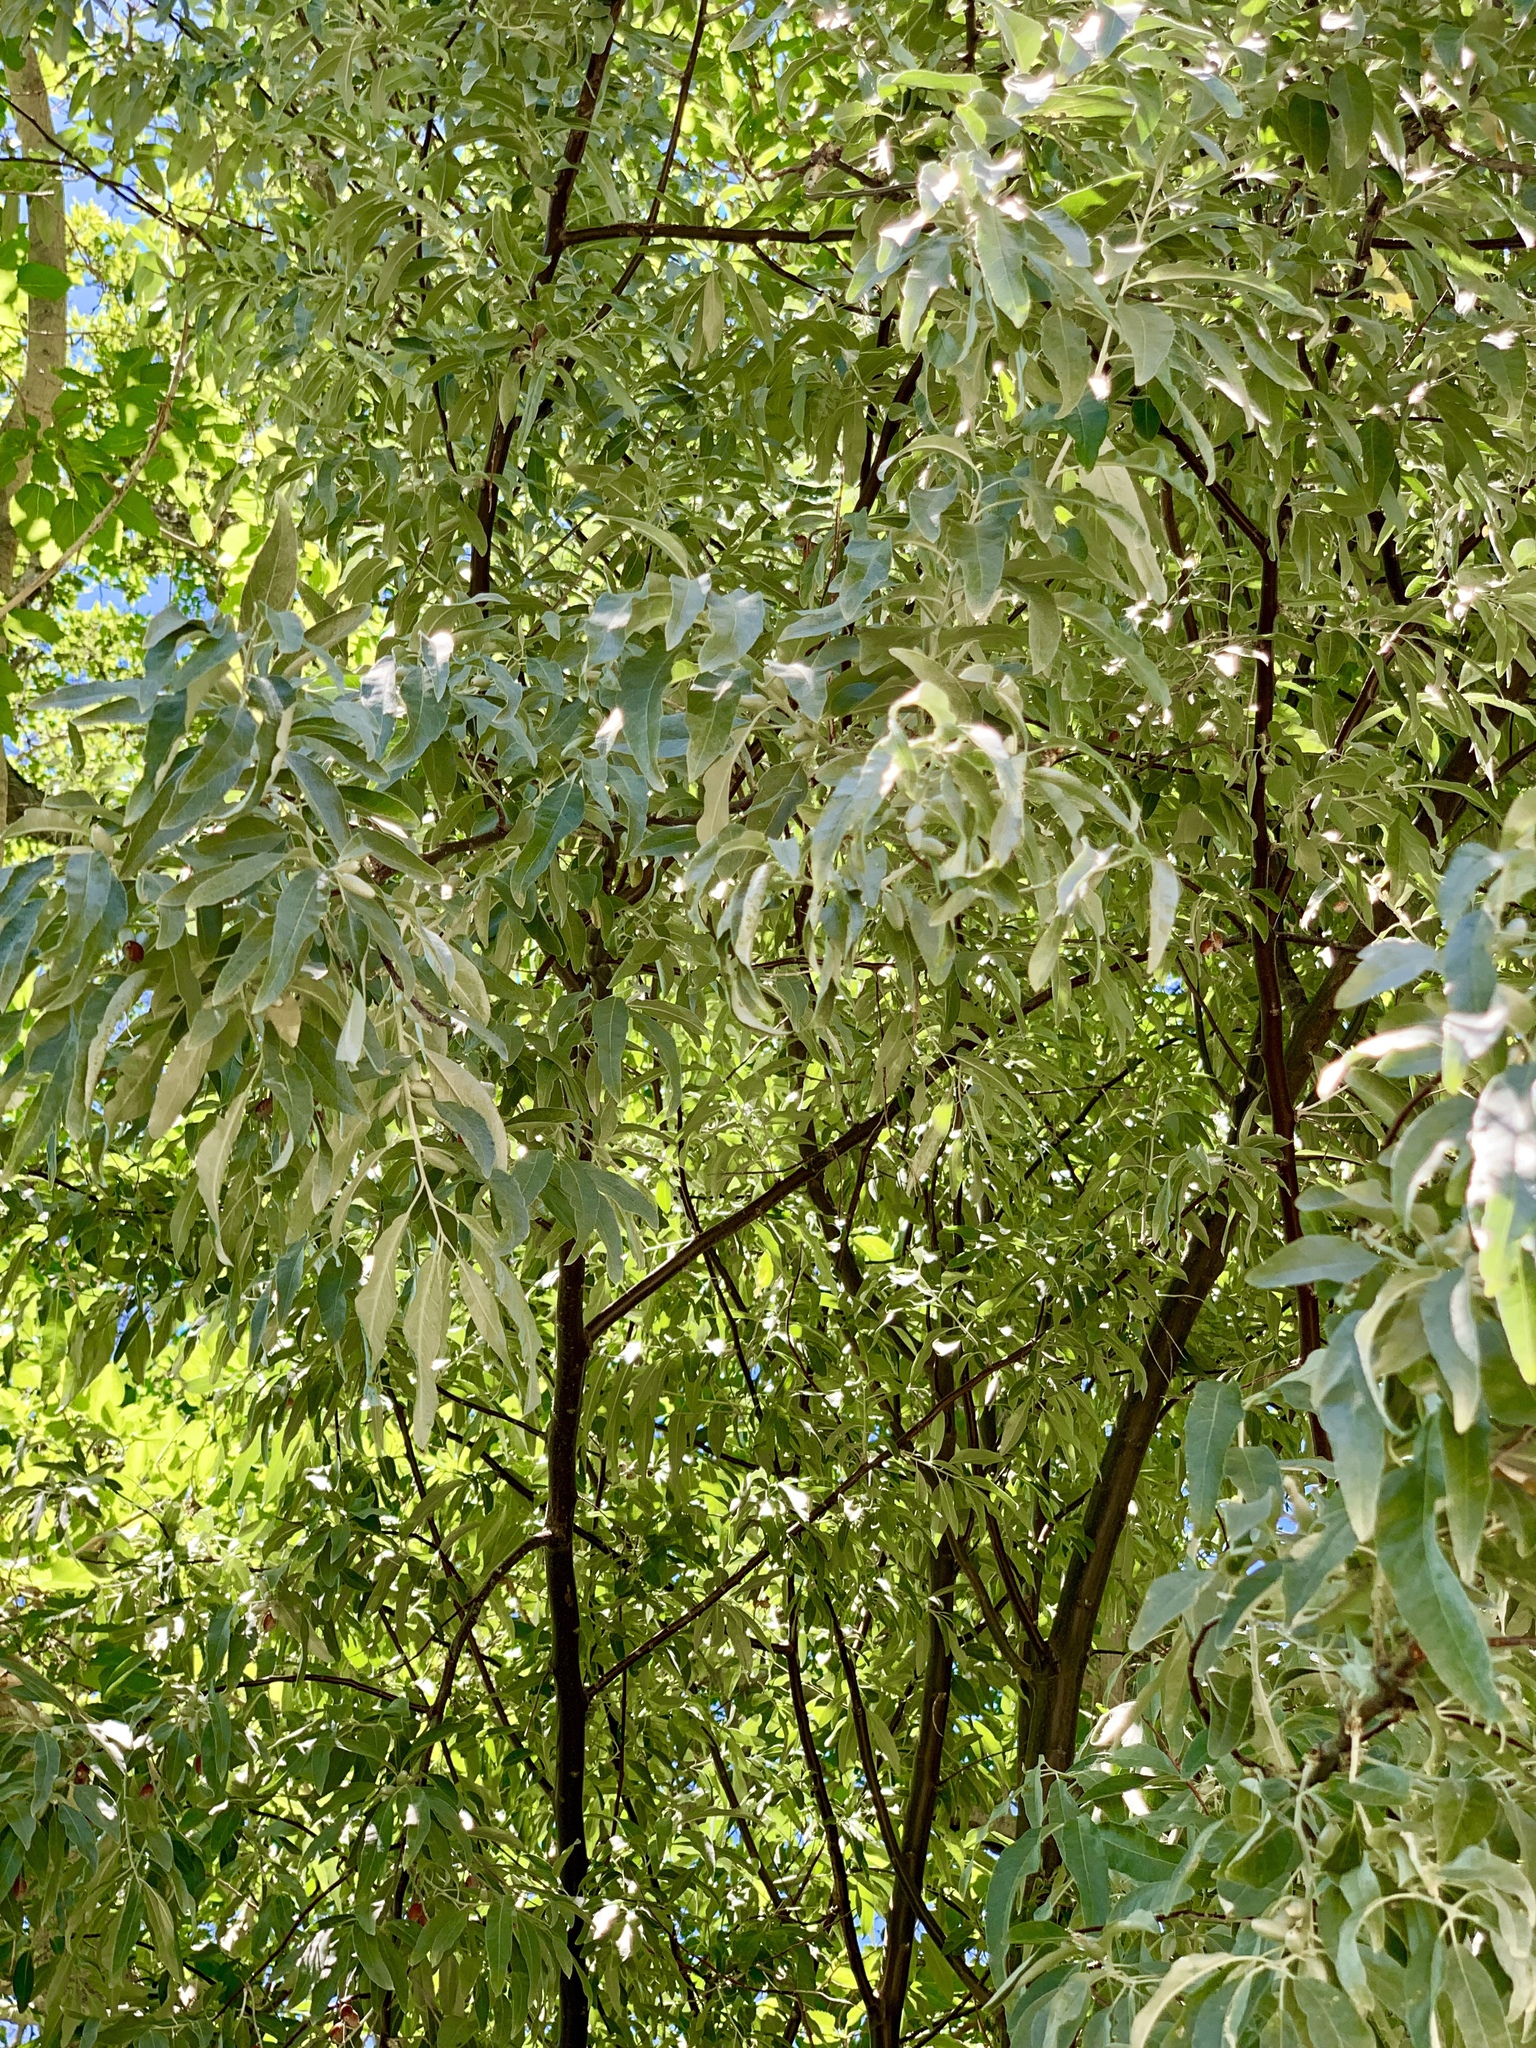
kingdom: Plantae
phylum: Tracheophyta
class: Magnoliopsida
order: Malpighiales
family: Salicaceae
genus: Salix
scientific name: Salix gooddingii
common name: Goodding's willow
